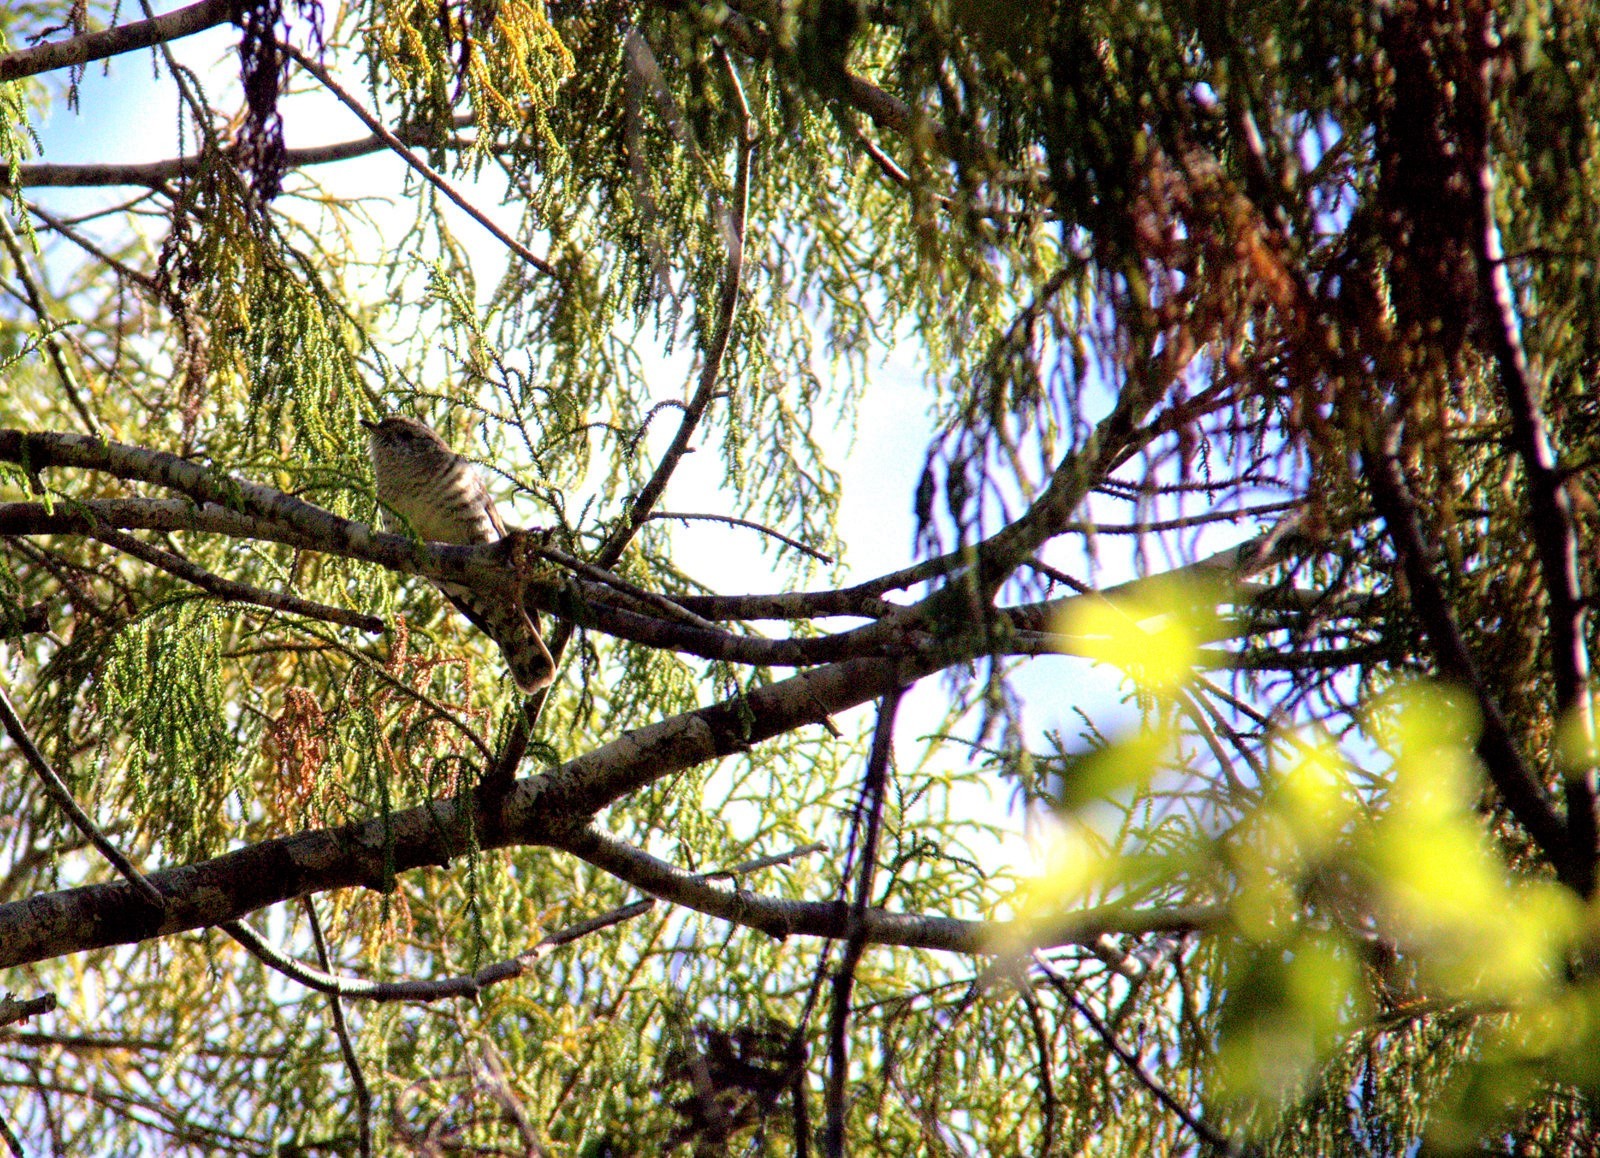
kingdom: Animalia
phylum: Chordata
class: Aves
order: Cuculiformes
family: Cuculidae
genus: Chrysococcyx
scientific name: Chrysococcyx lucidus
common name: Shining bronze cuckoo
